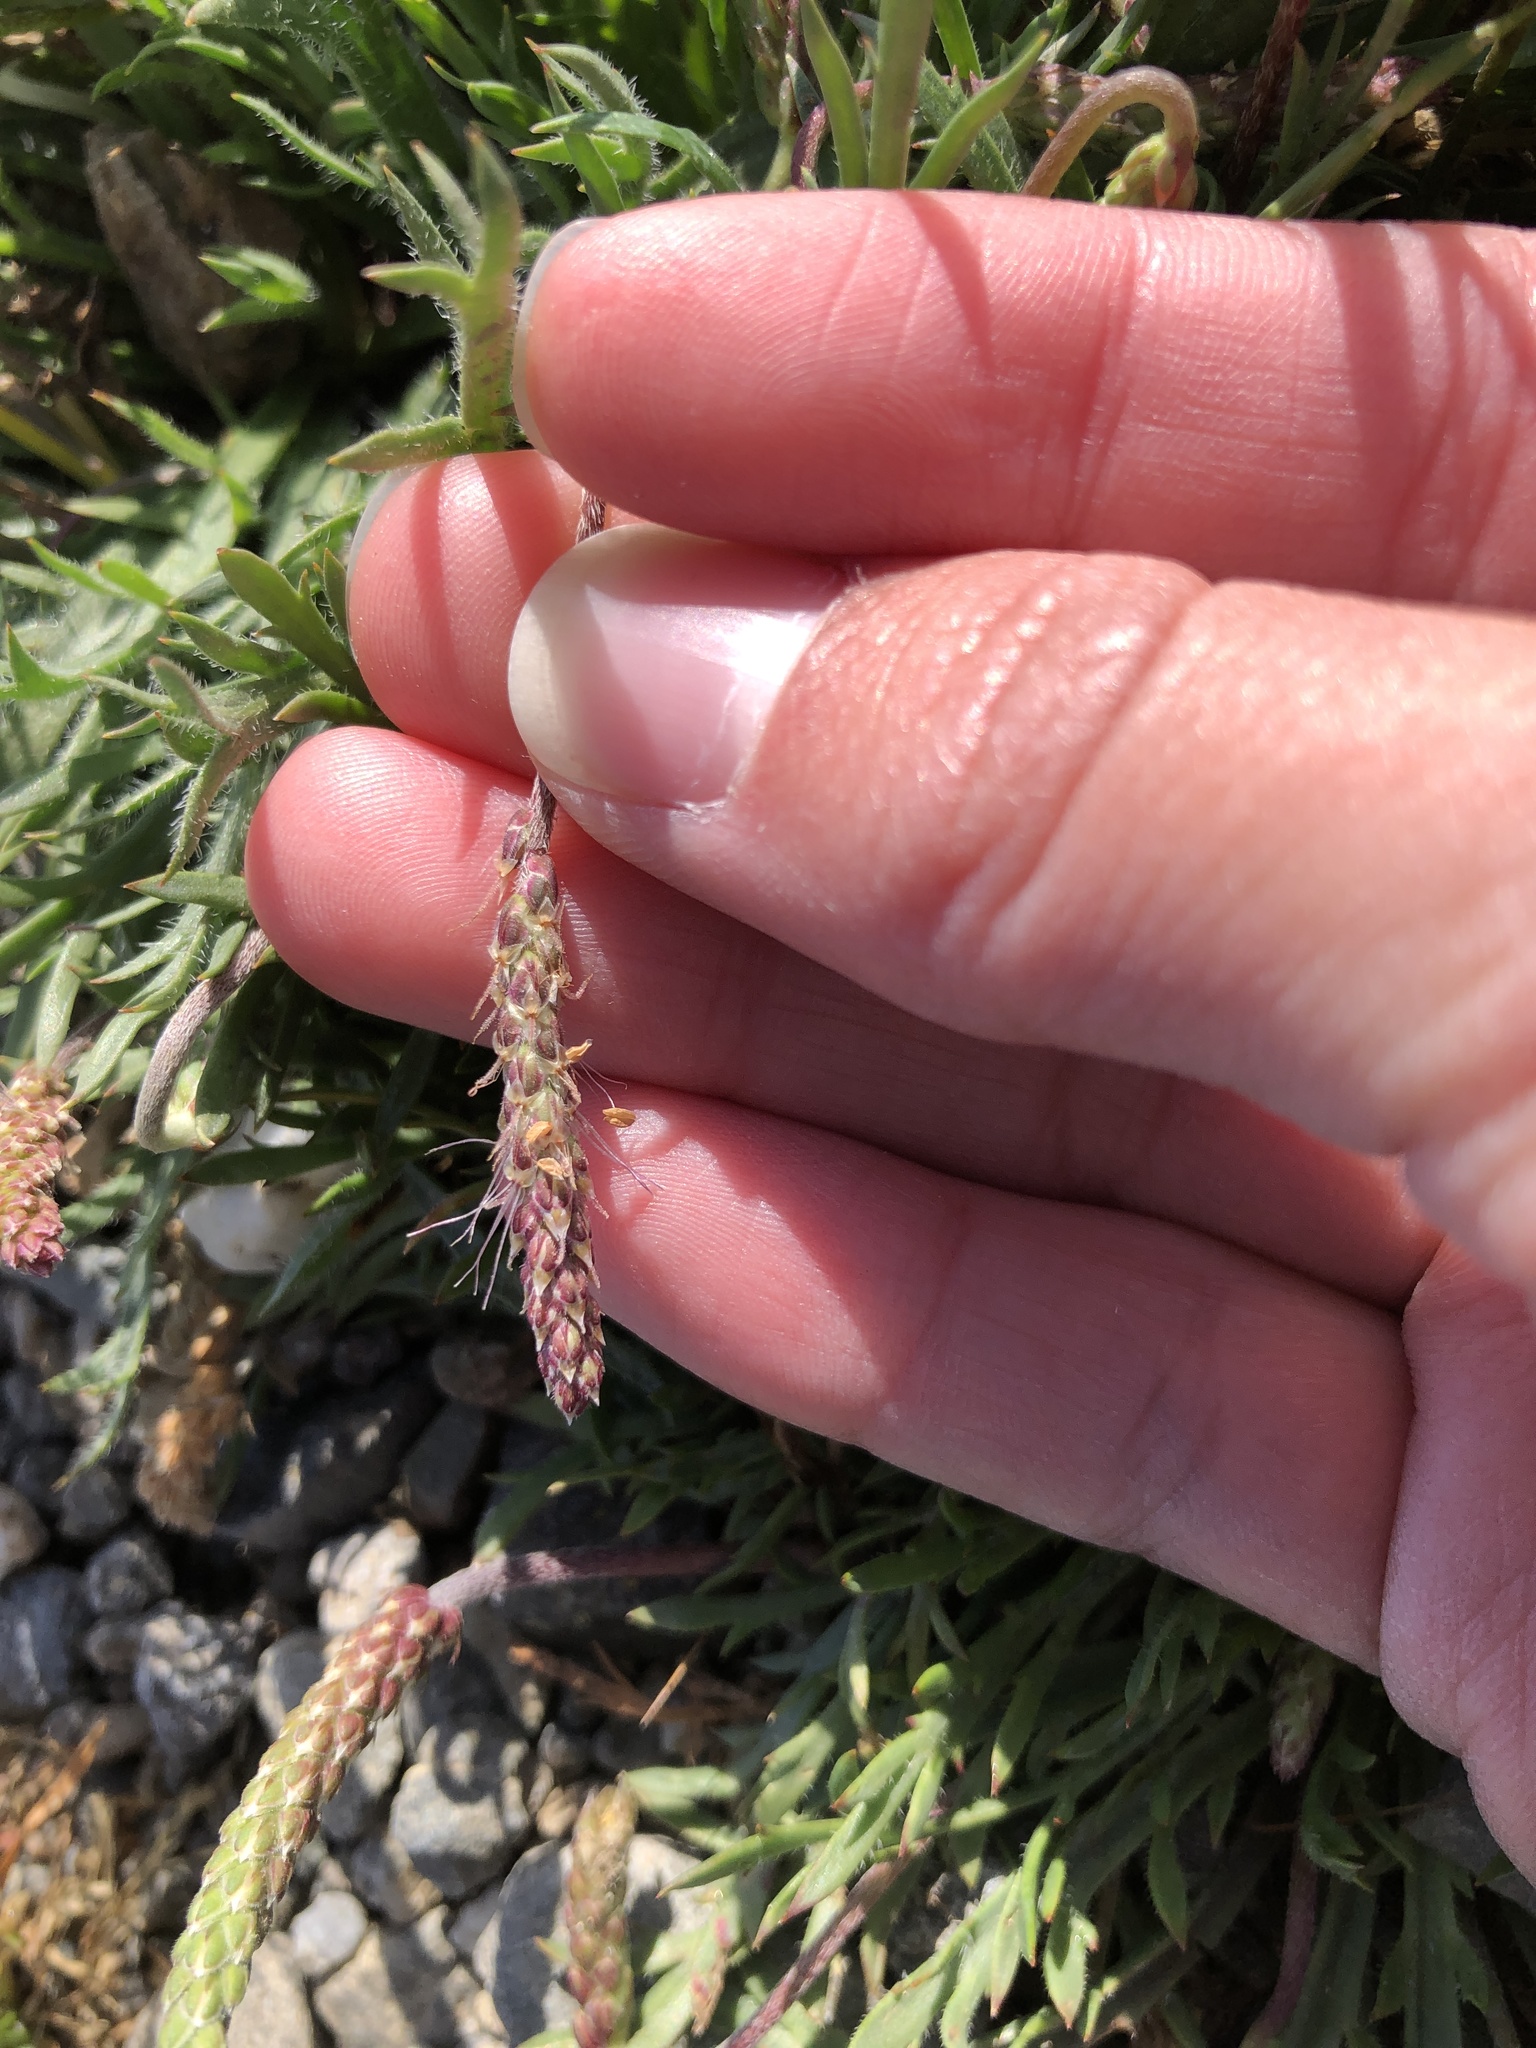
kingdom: Plantae
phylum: Tracheophyta
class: Magnoliopsida
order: Lamiales
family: Plantaginaceae
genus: Plantago
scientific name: Plantago coronopus
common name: Buck's-horn plantain
